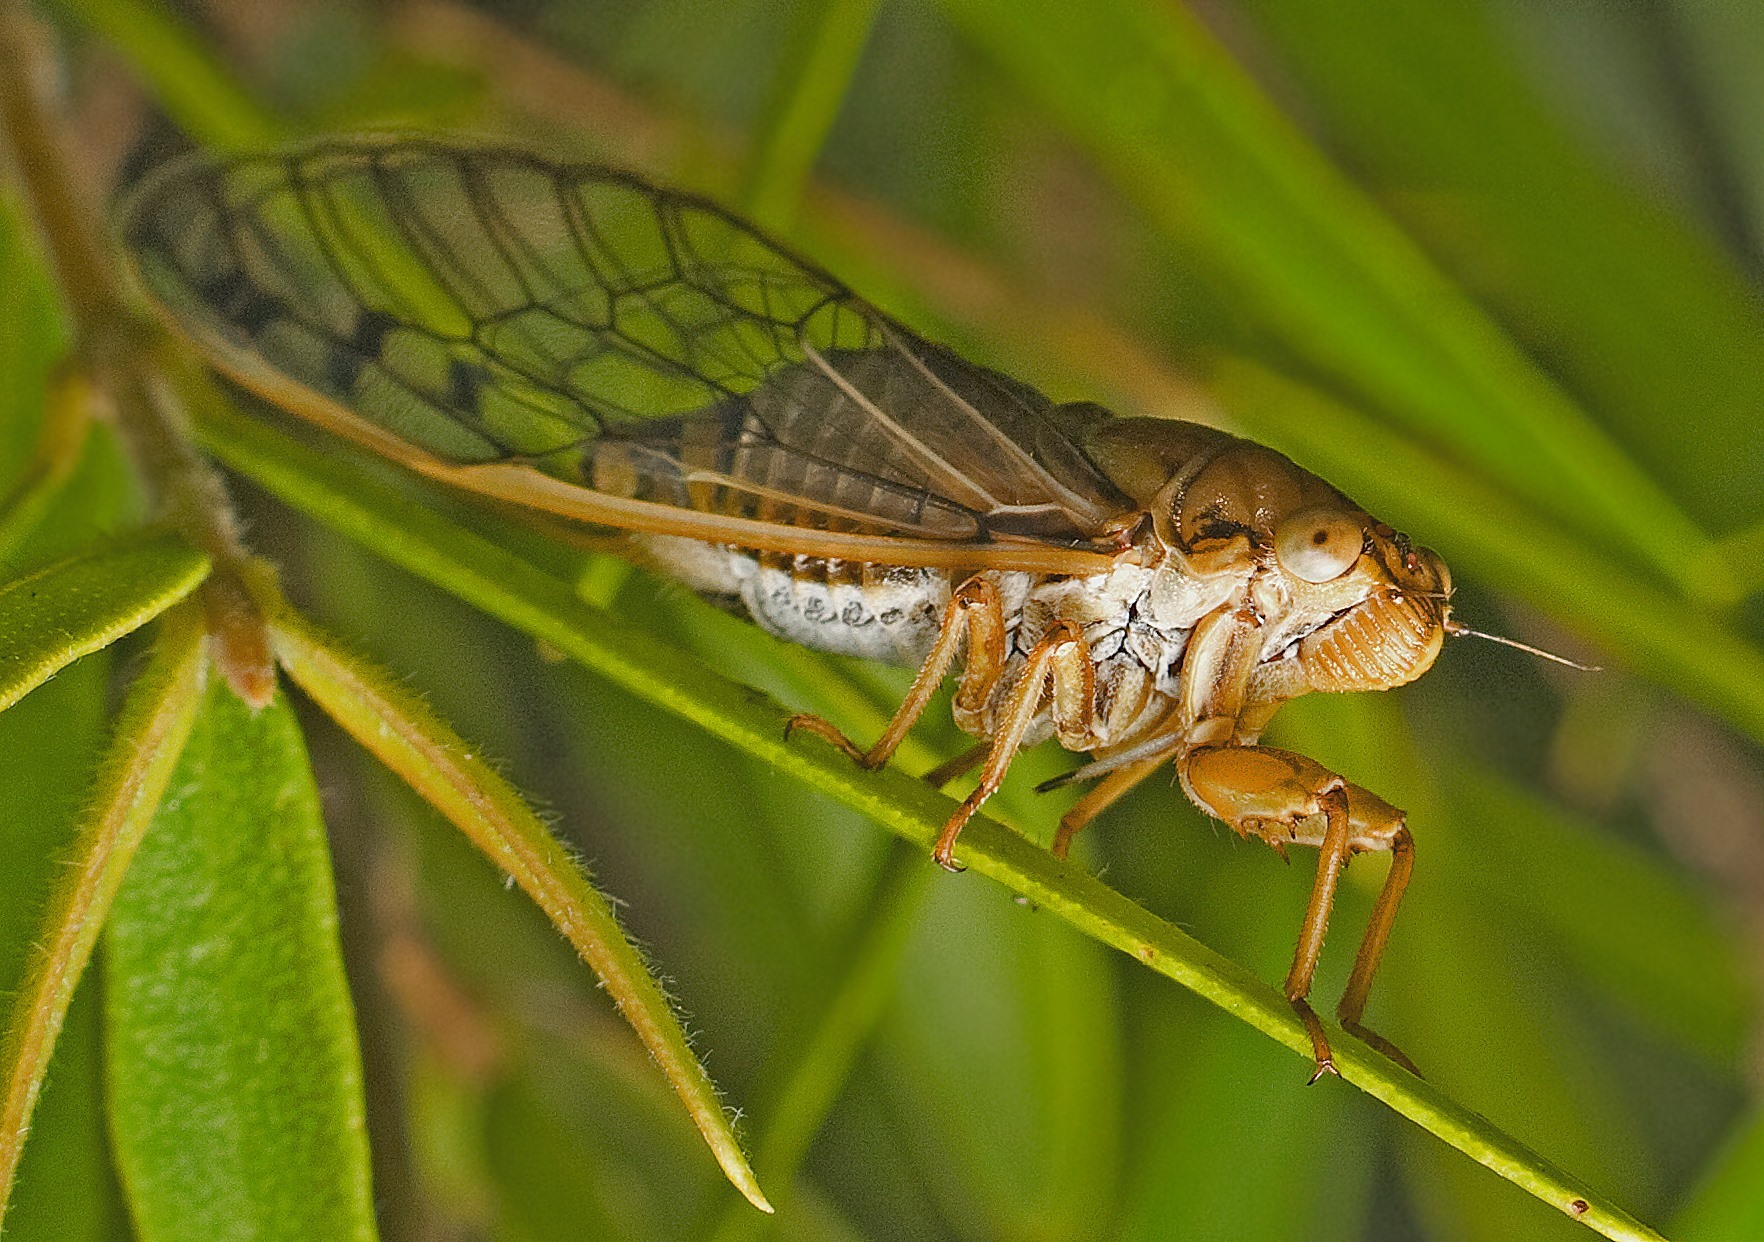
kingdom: Animalia
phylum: Arthropoda
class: Insecta
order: Hemiptera
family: Cicadidae
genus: Parnkalla
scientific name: Parnkalla muelleri
